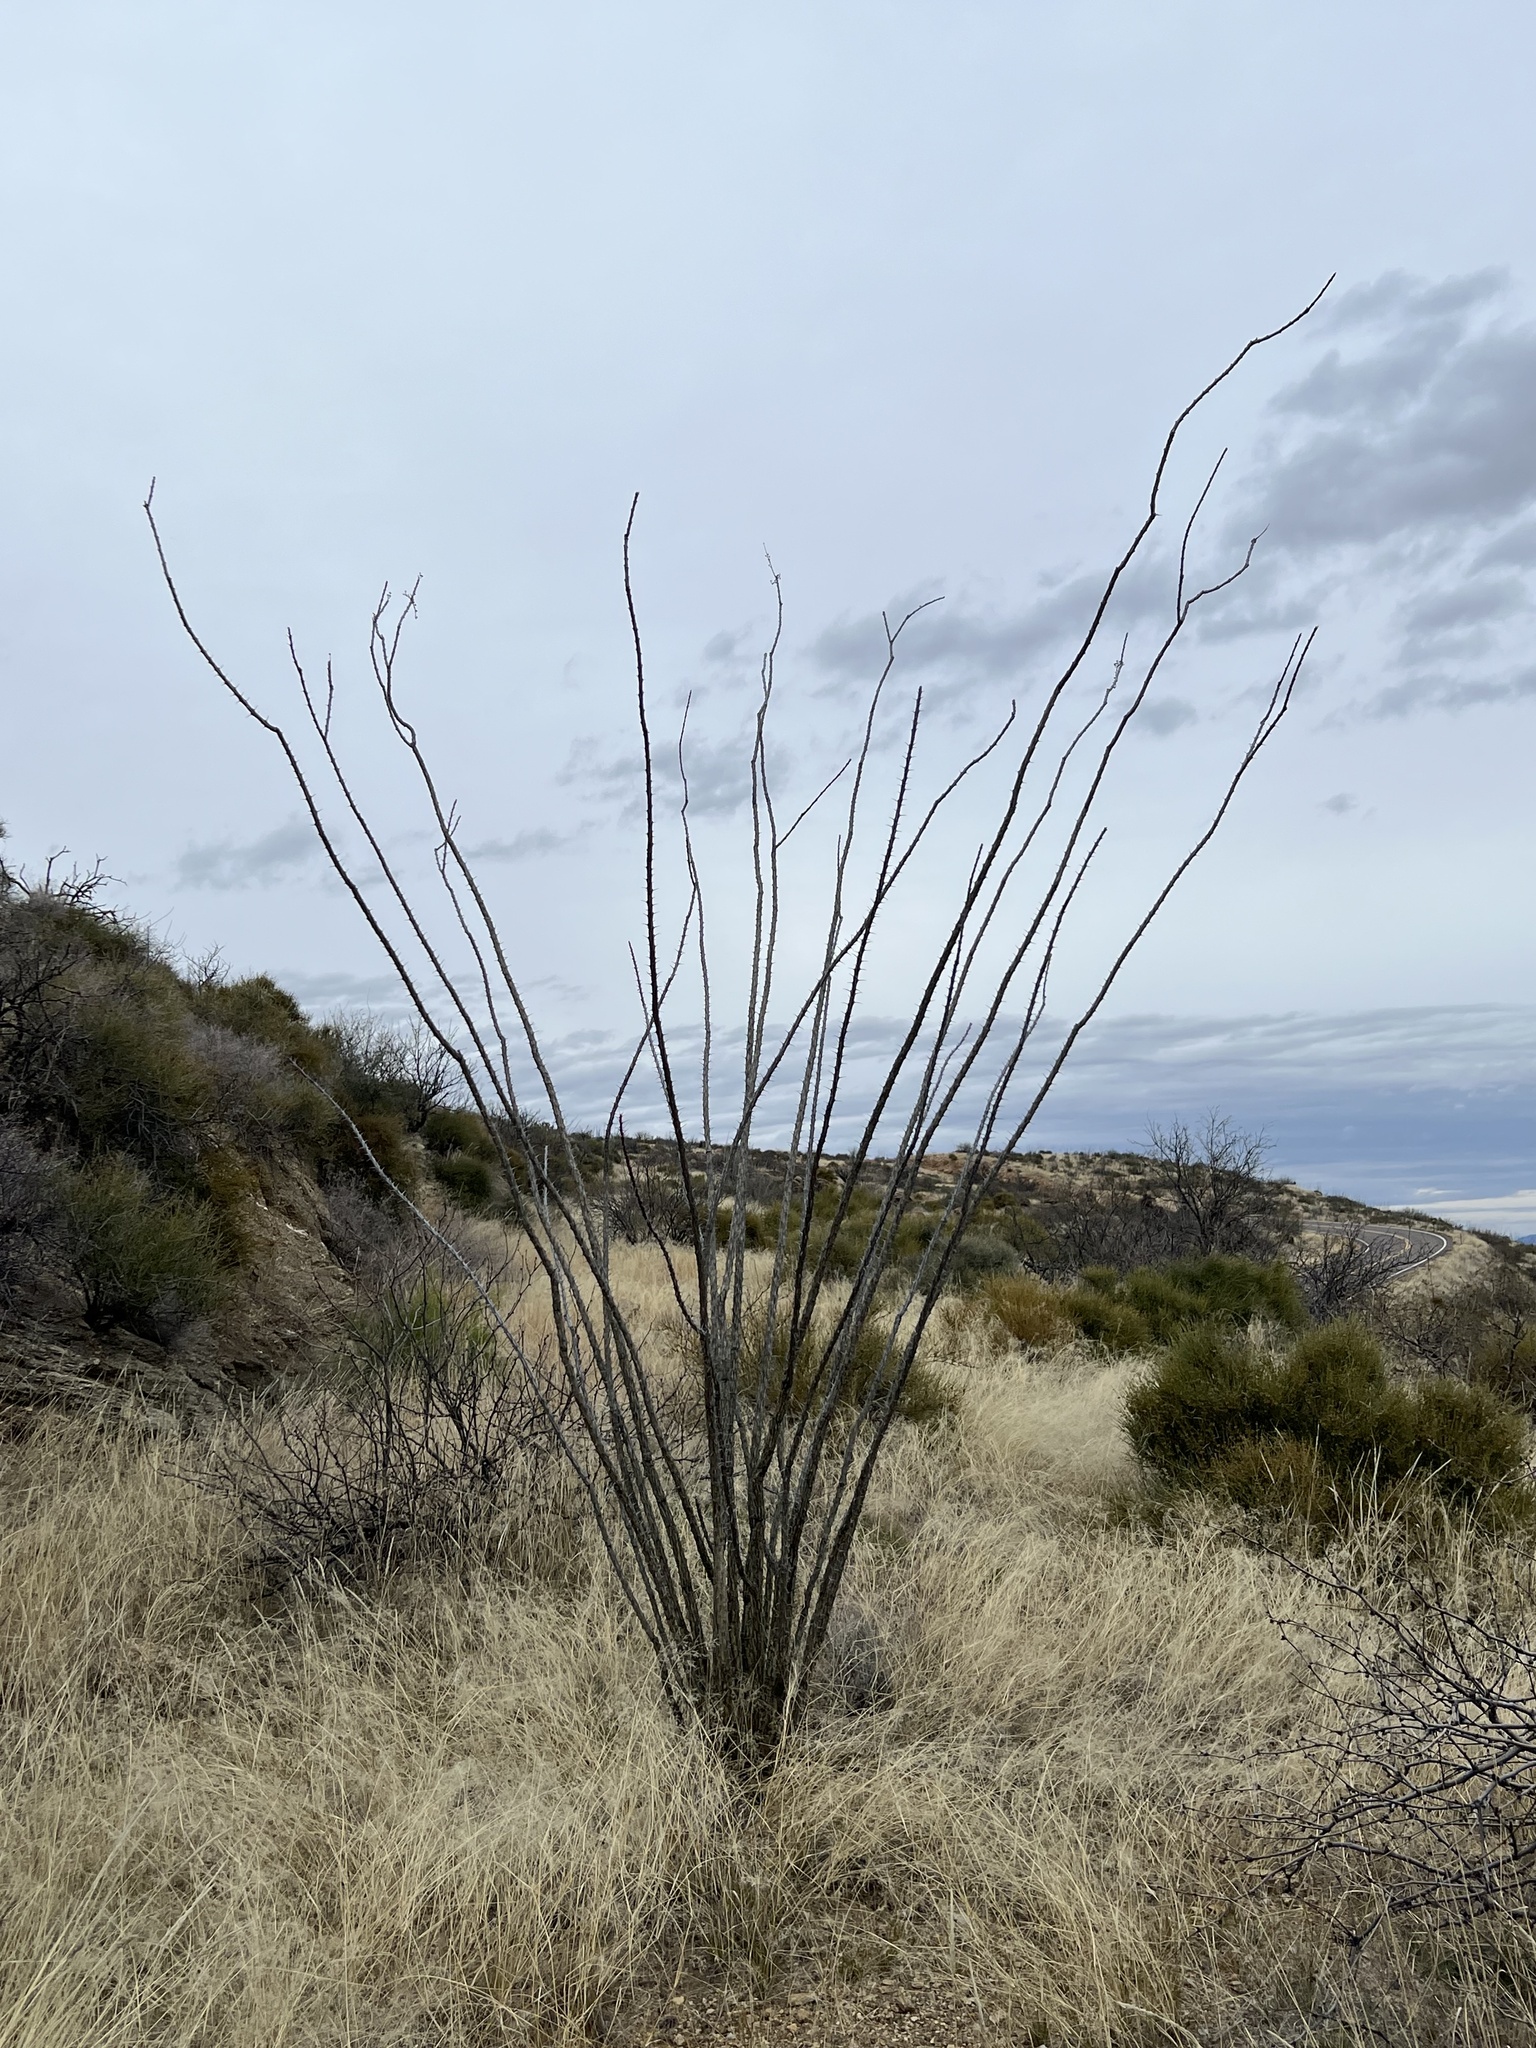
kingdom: Plantae
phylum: Tracheophyta
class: Magnoliopsida
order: Ericales
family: Fouquieriaceae
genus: Fouquieria
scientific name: Fouquieria splendens
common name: Vine-cactus
